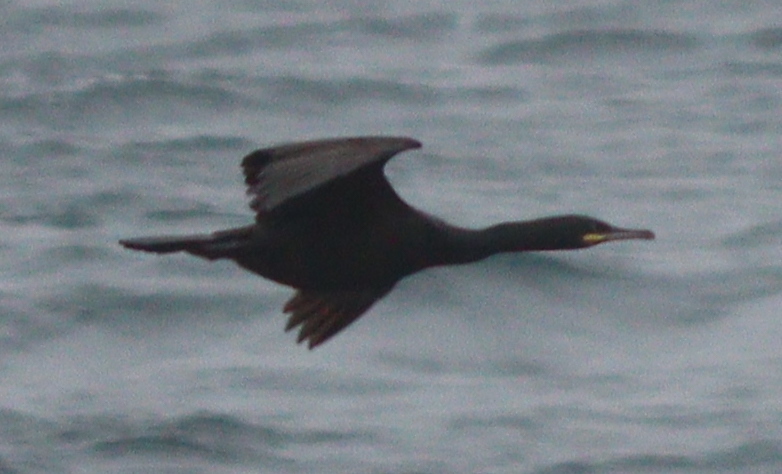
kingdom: Animalia
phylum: Chordata
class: Aves
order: Suliformes
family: Phalacrocoracidae
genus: Phalacrocorax
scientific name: Phalacrocorax aristotelis
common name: European shag
